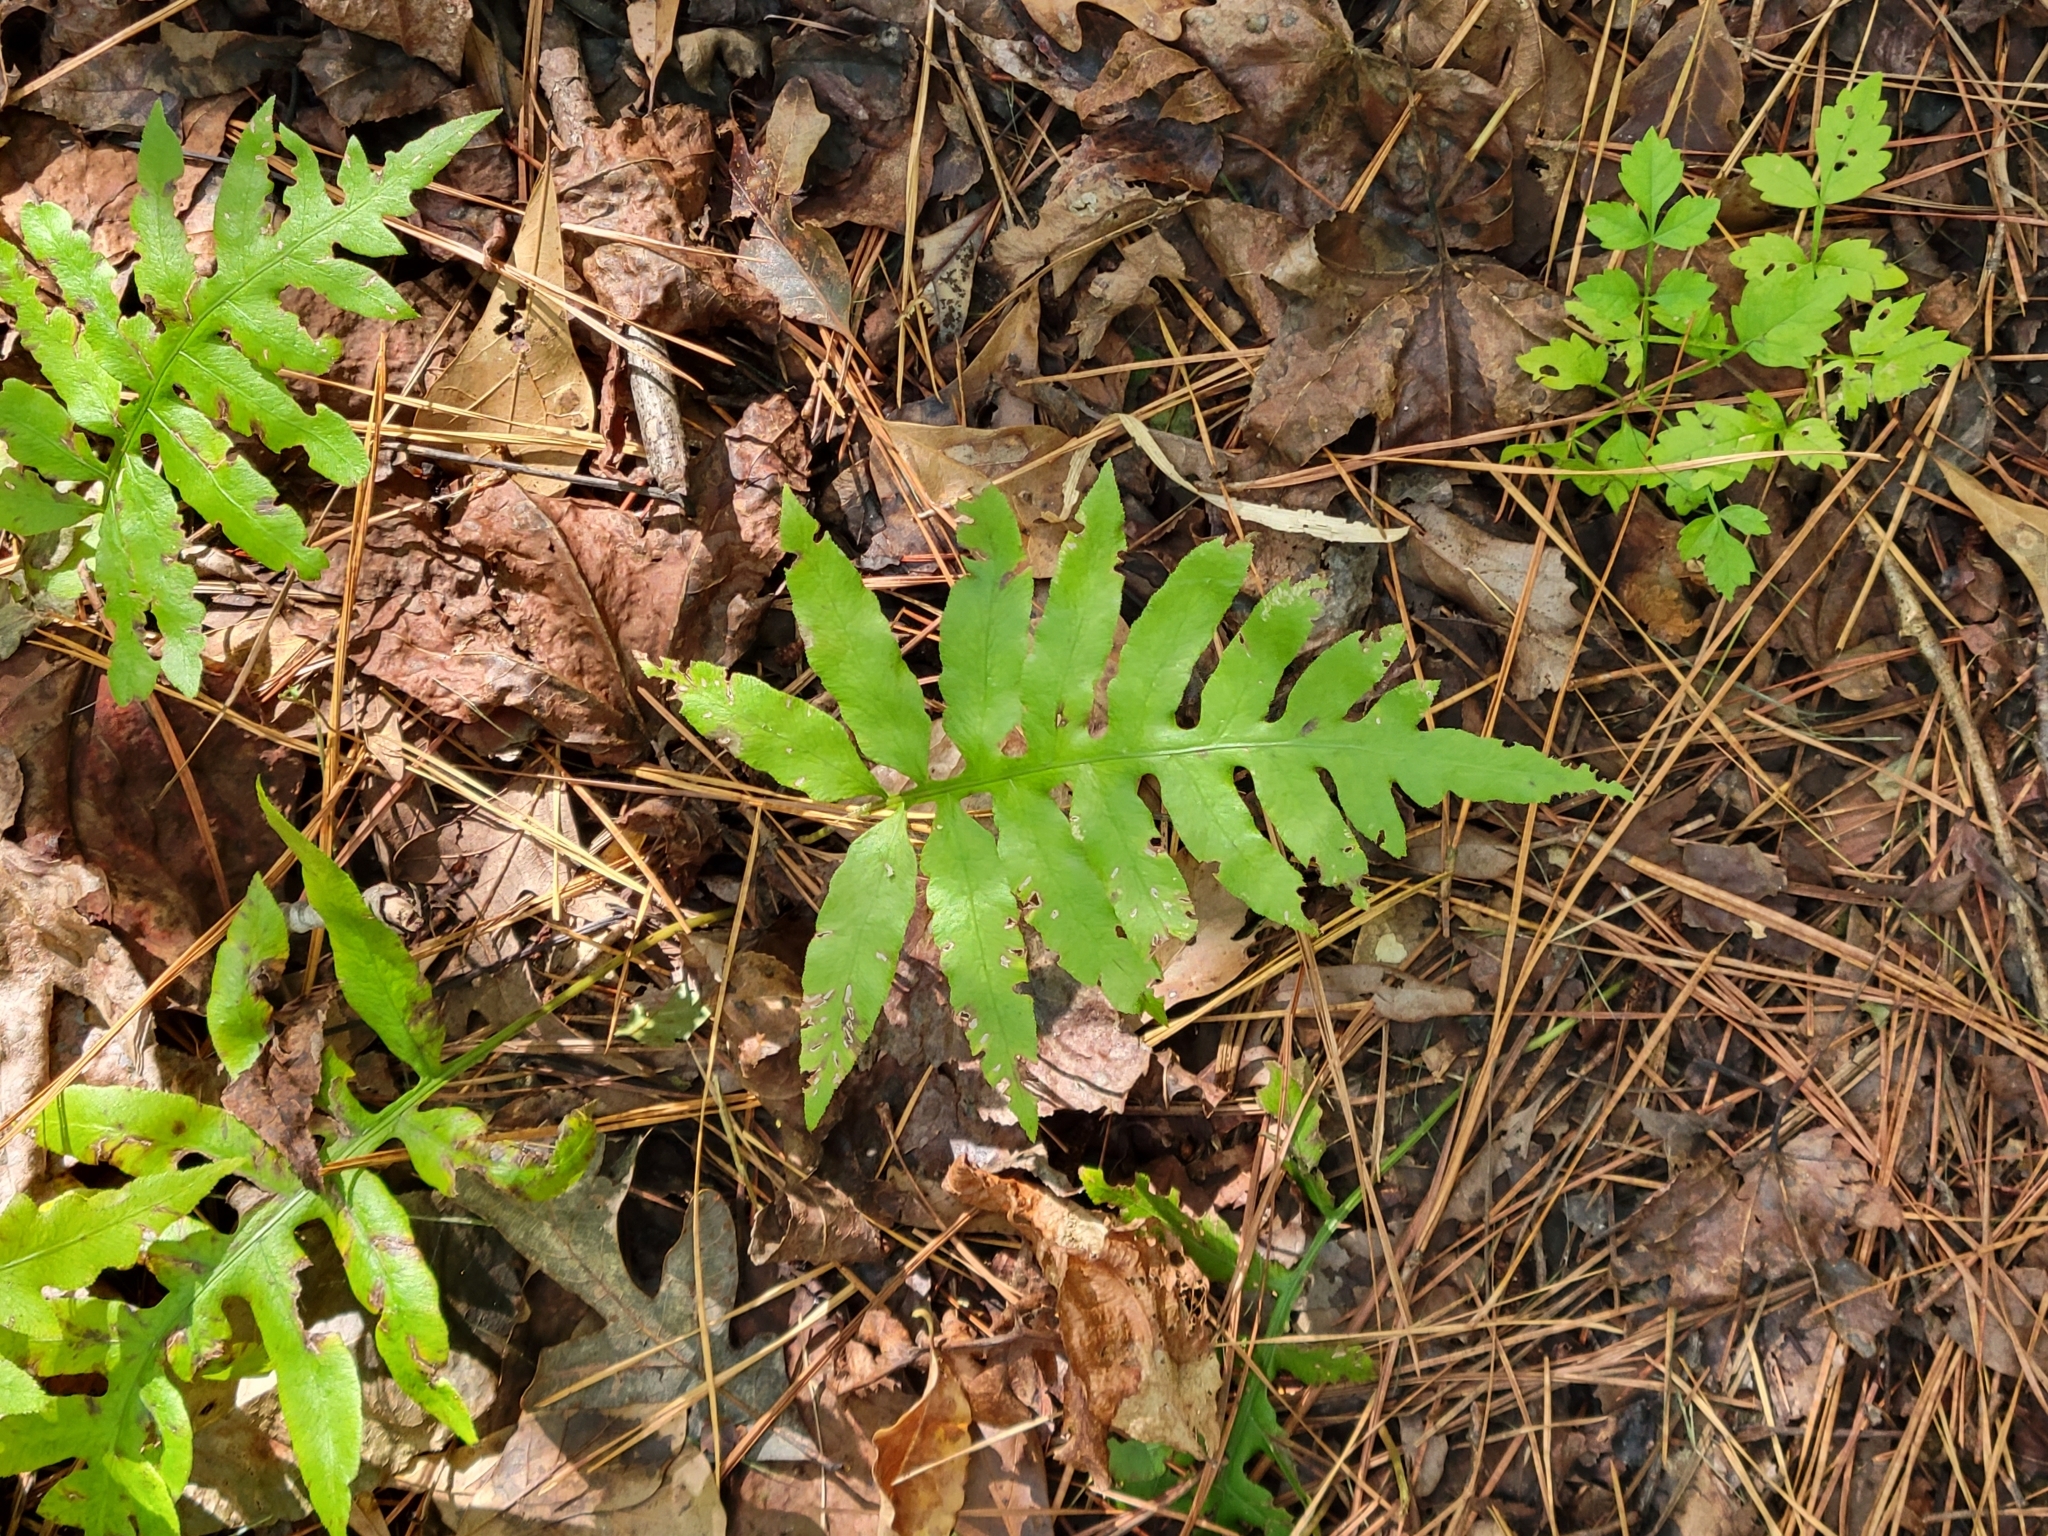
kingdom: Plantae
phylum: Tracheophyta
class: Polypodiopsida
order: Polypodiales
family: Blechnaceae
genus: Lorinseria
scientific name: Lorinseria areolata
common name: Dwarf chain fern
